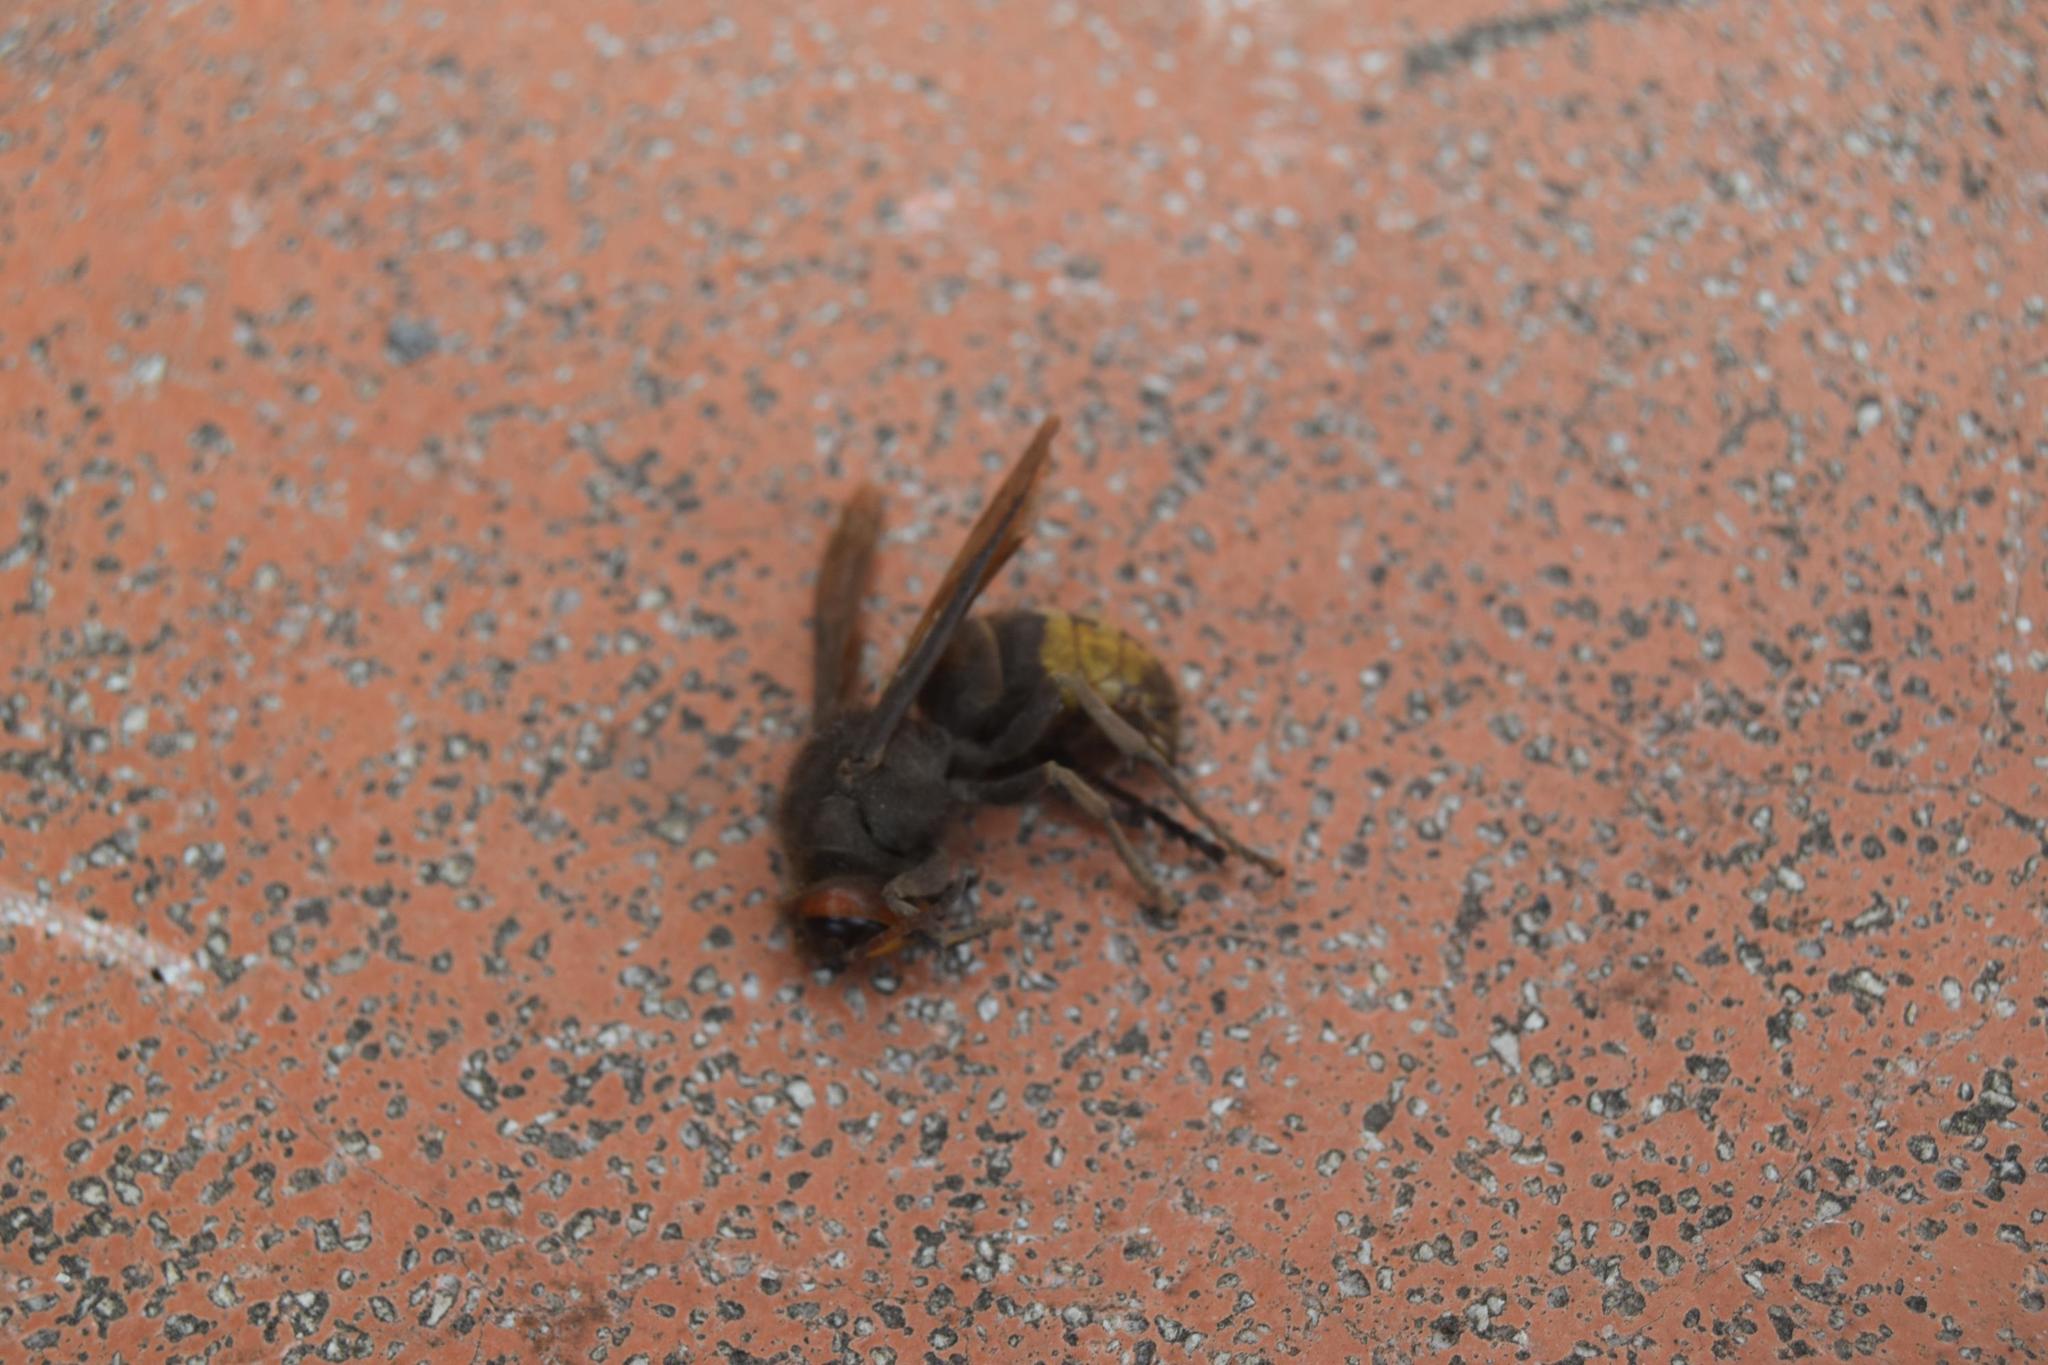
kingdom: Animalia
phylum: Arthropoda
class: Insecta
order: Hymenoptera
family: Vespidae
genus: Vespa
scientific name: Vespa crabro
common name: Hornet
